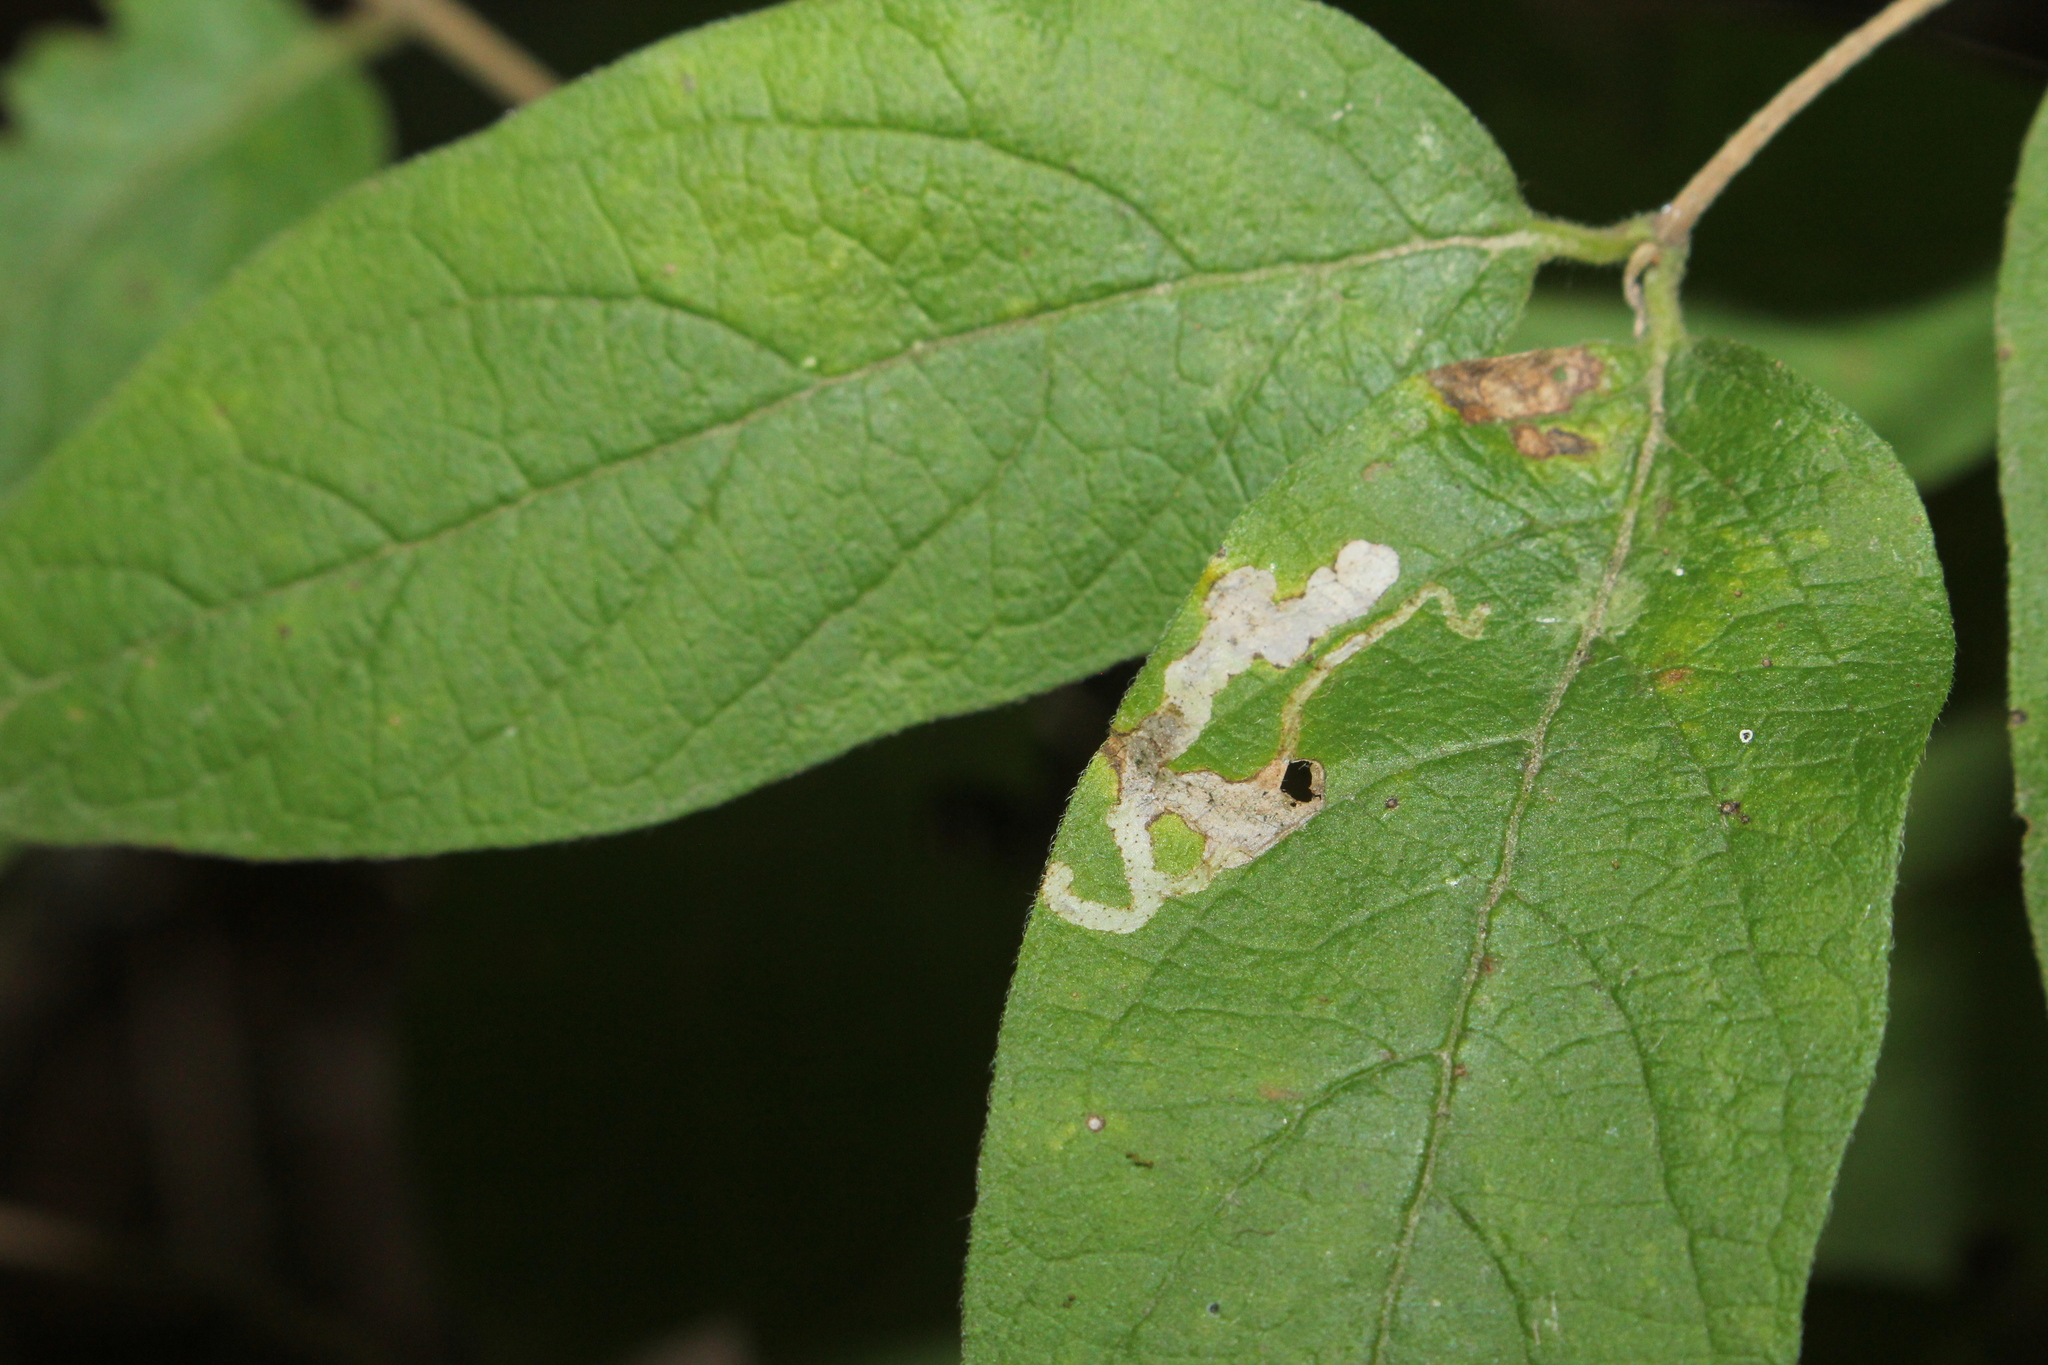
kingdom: Animalia
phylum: Arthropoda
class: Insecta
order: Diptera
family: Agromyzidae
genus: Aulagromyza
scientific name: Aulagromyza luteoscutellata
